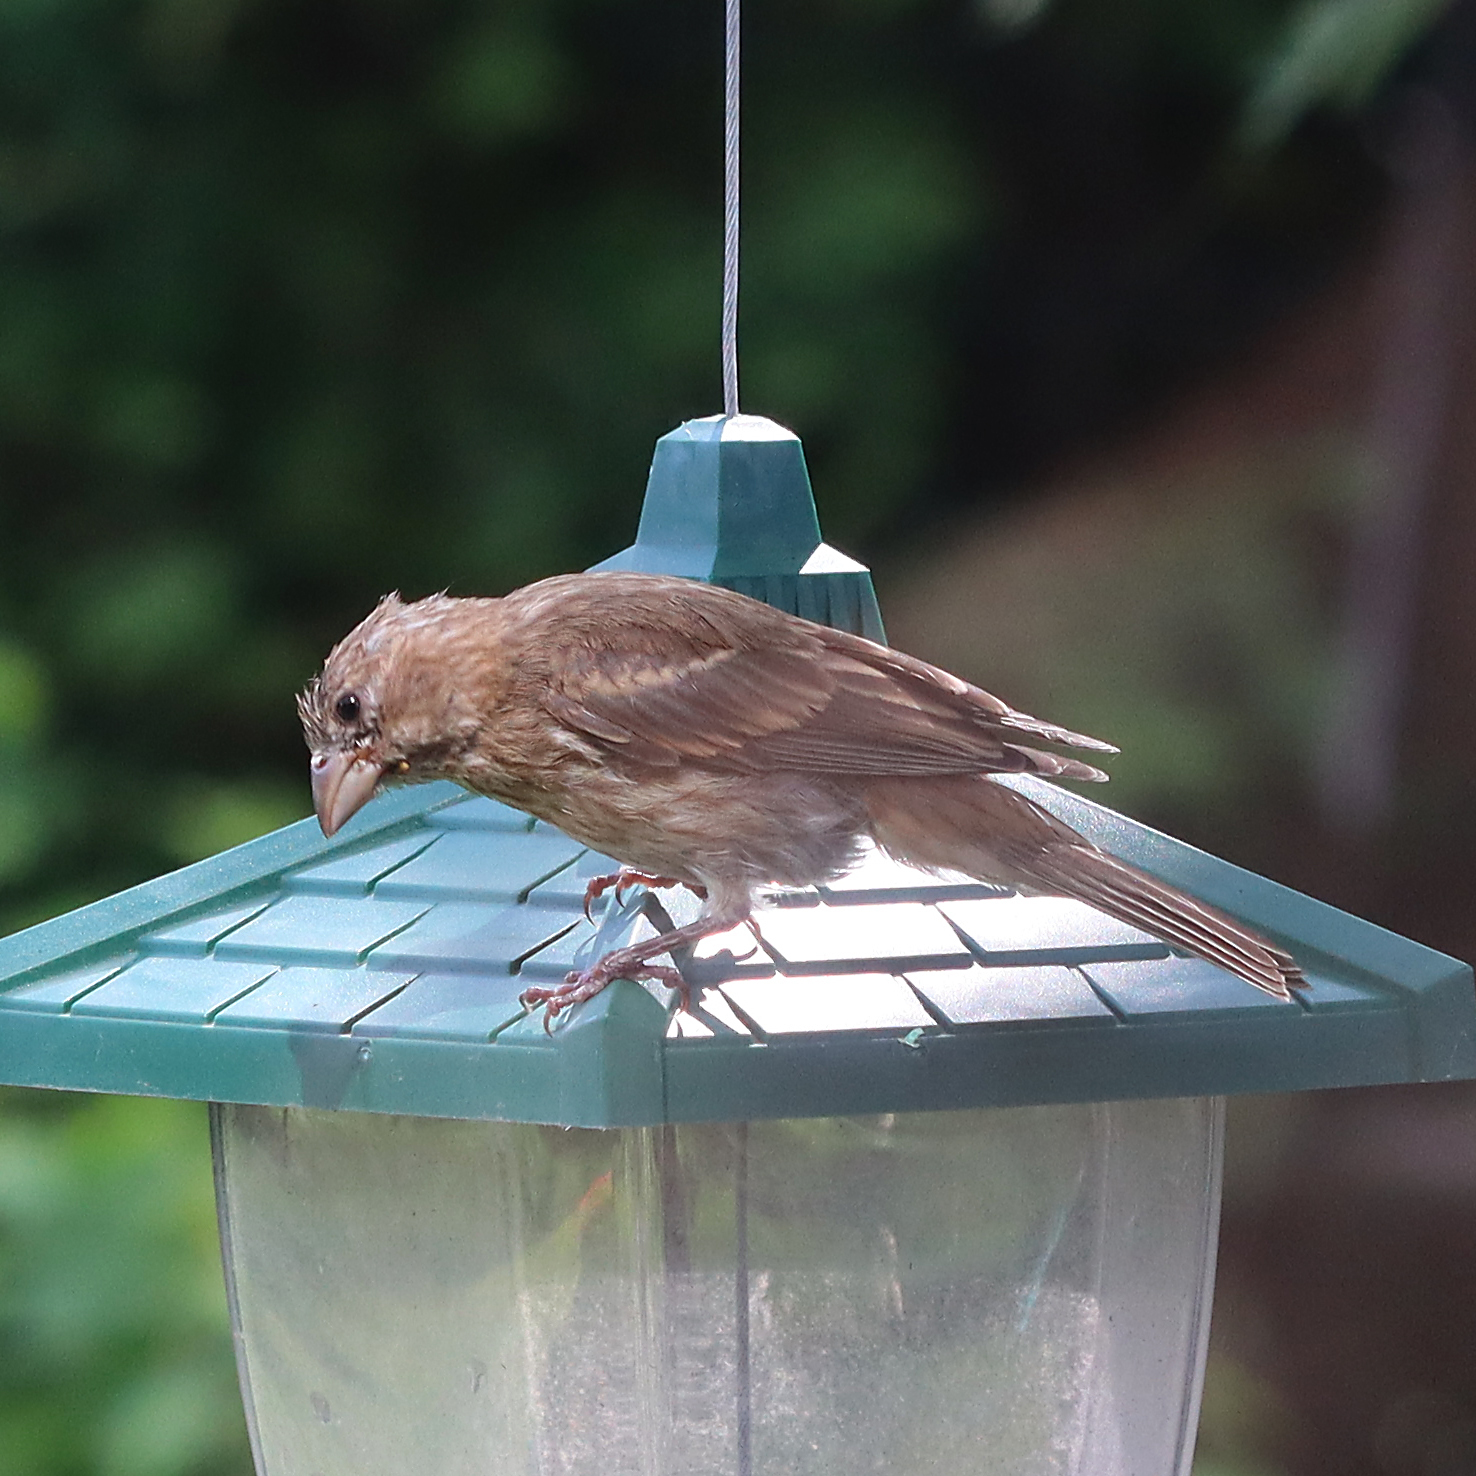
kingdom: Animalia
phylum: Chordata
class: Aves
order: Passeriformes
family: Fringillidae
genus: Haemorhous
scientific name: Haemorhous mexicanus
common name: House finch
